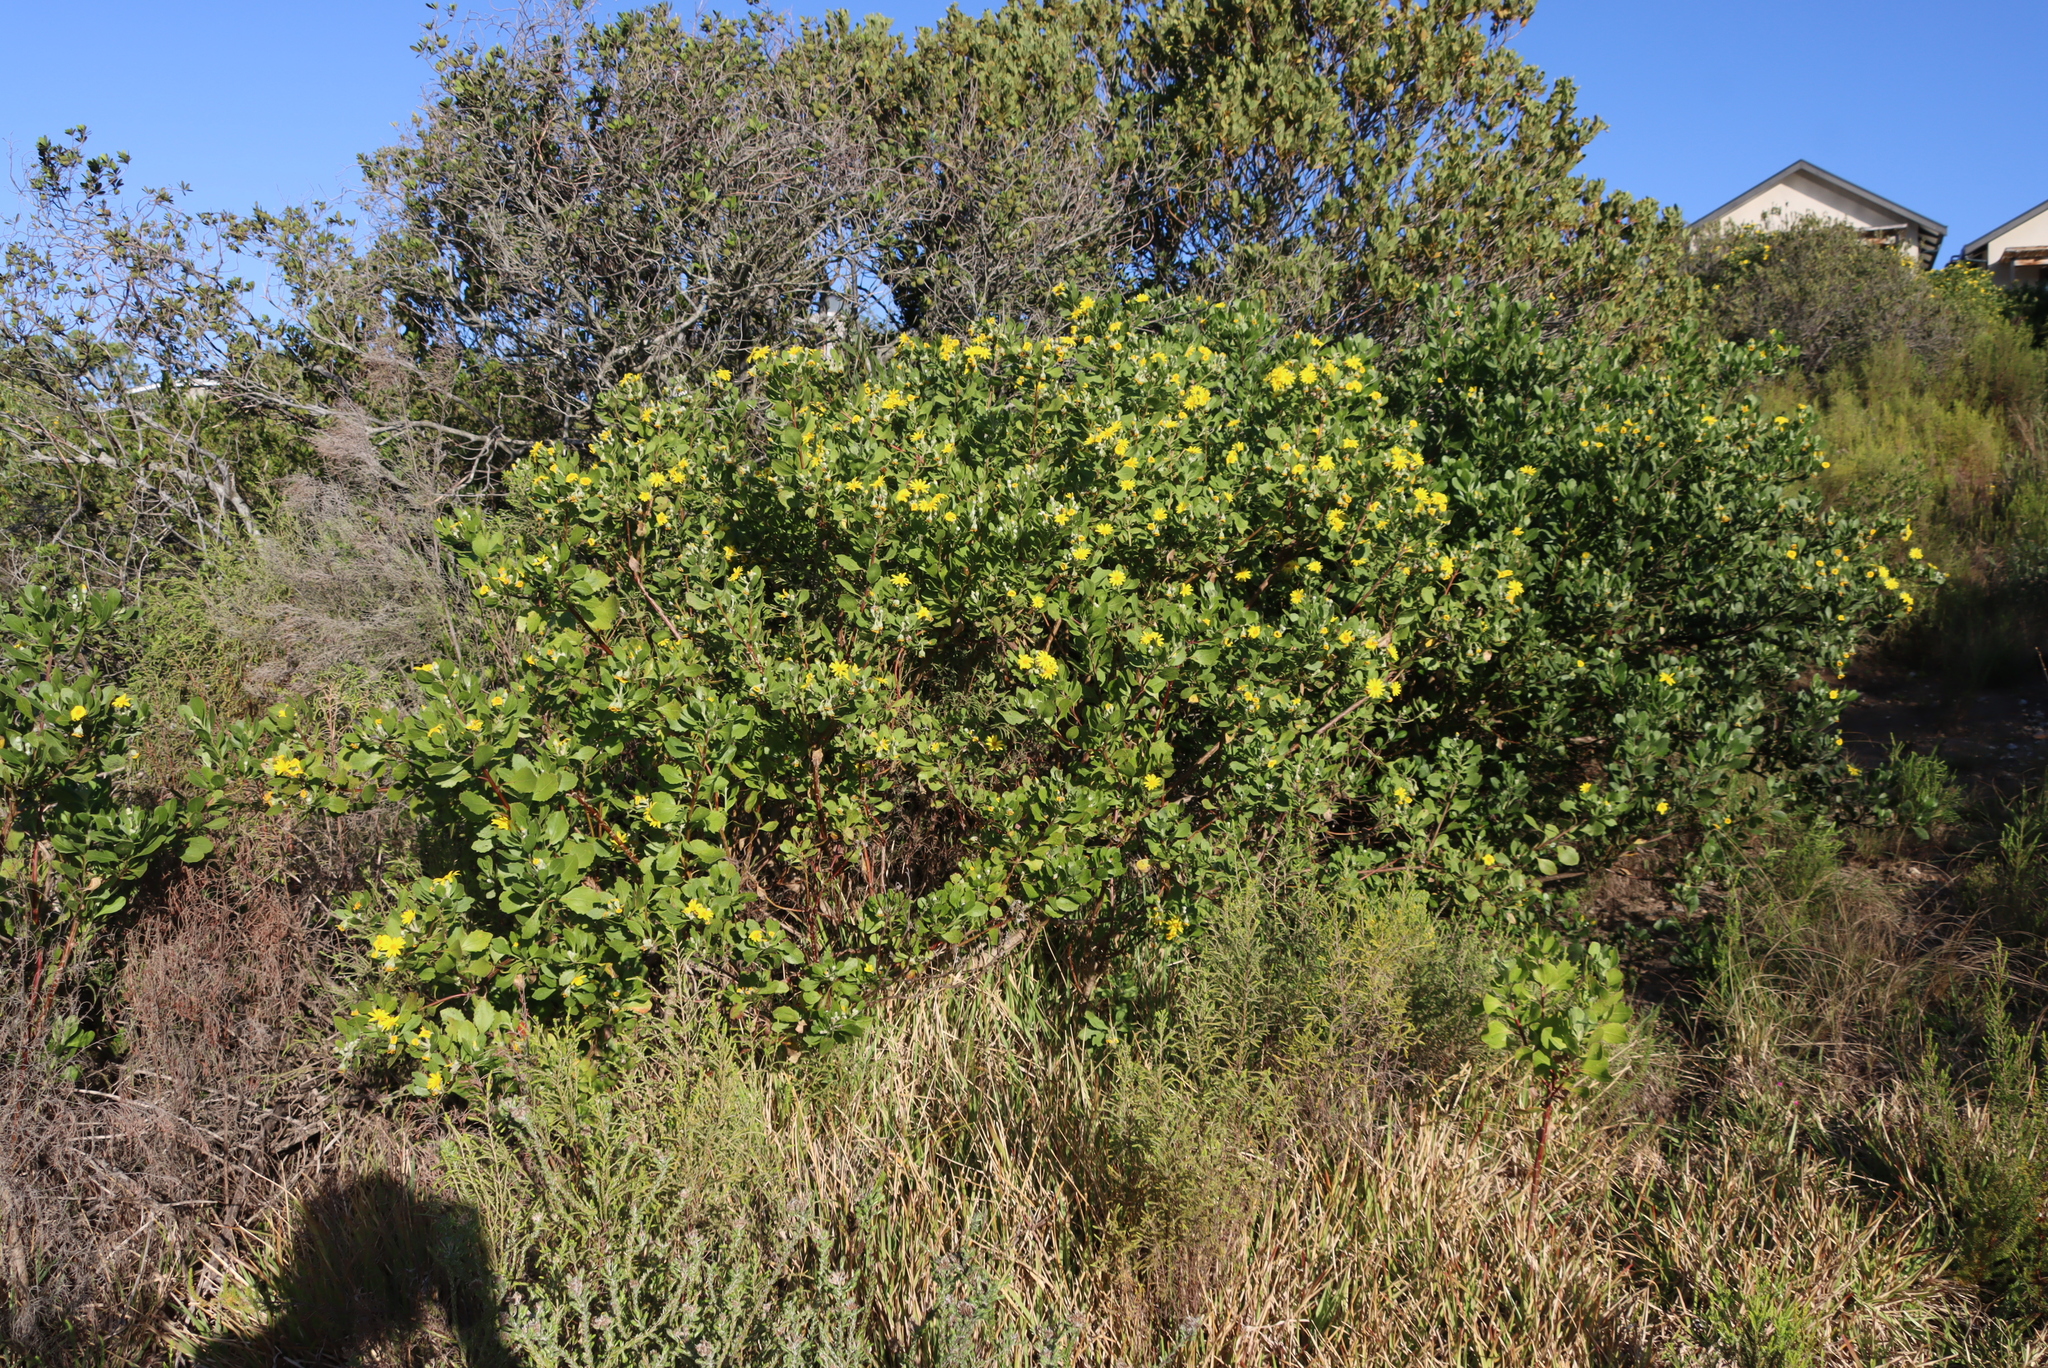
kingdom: Plantae
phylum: Tracheophyta
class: Magnoliopsida
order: Asterales
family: Asteraceae
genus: Osteospermum
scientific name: Osteospermum moniliferum
